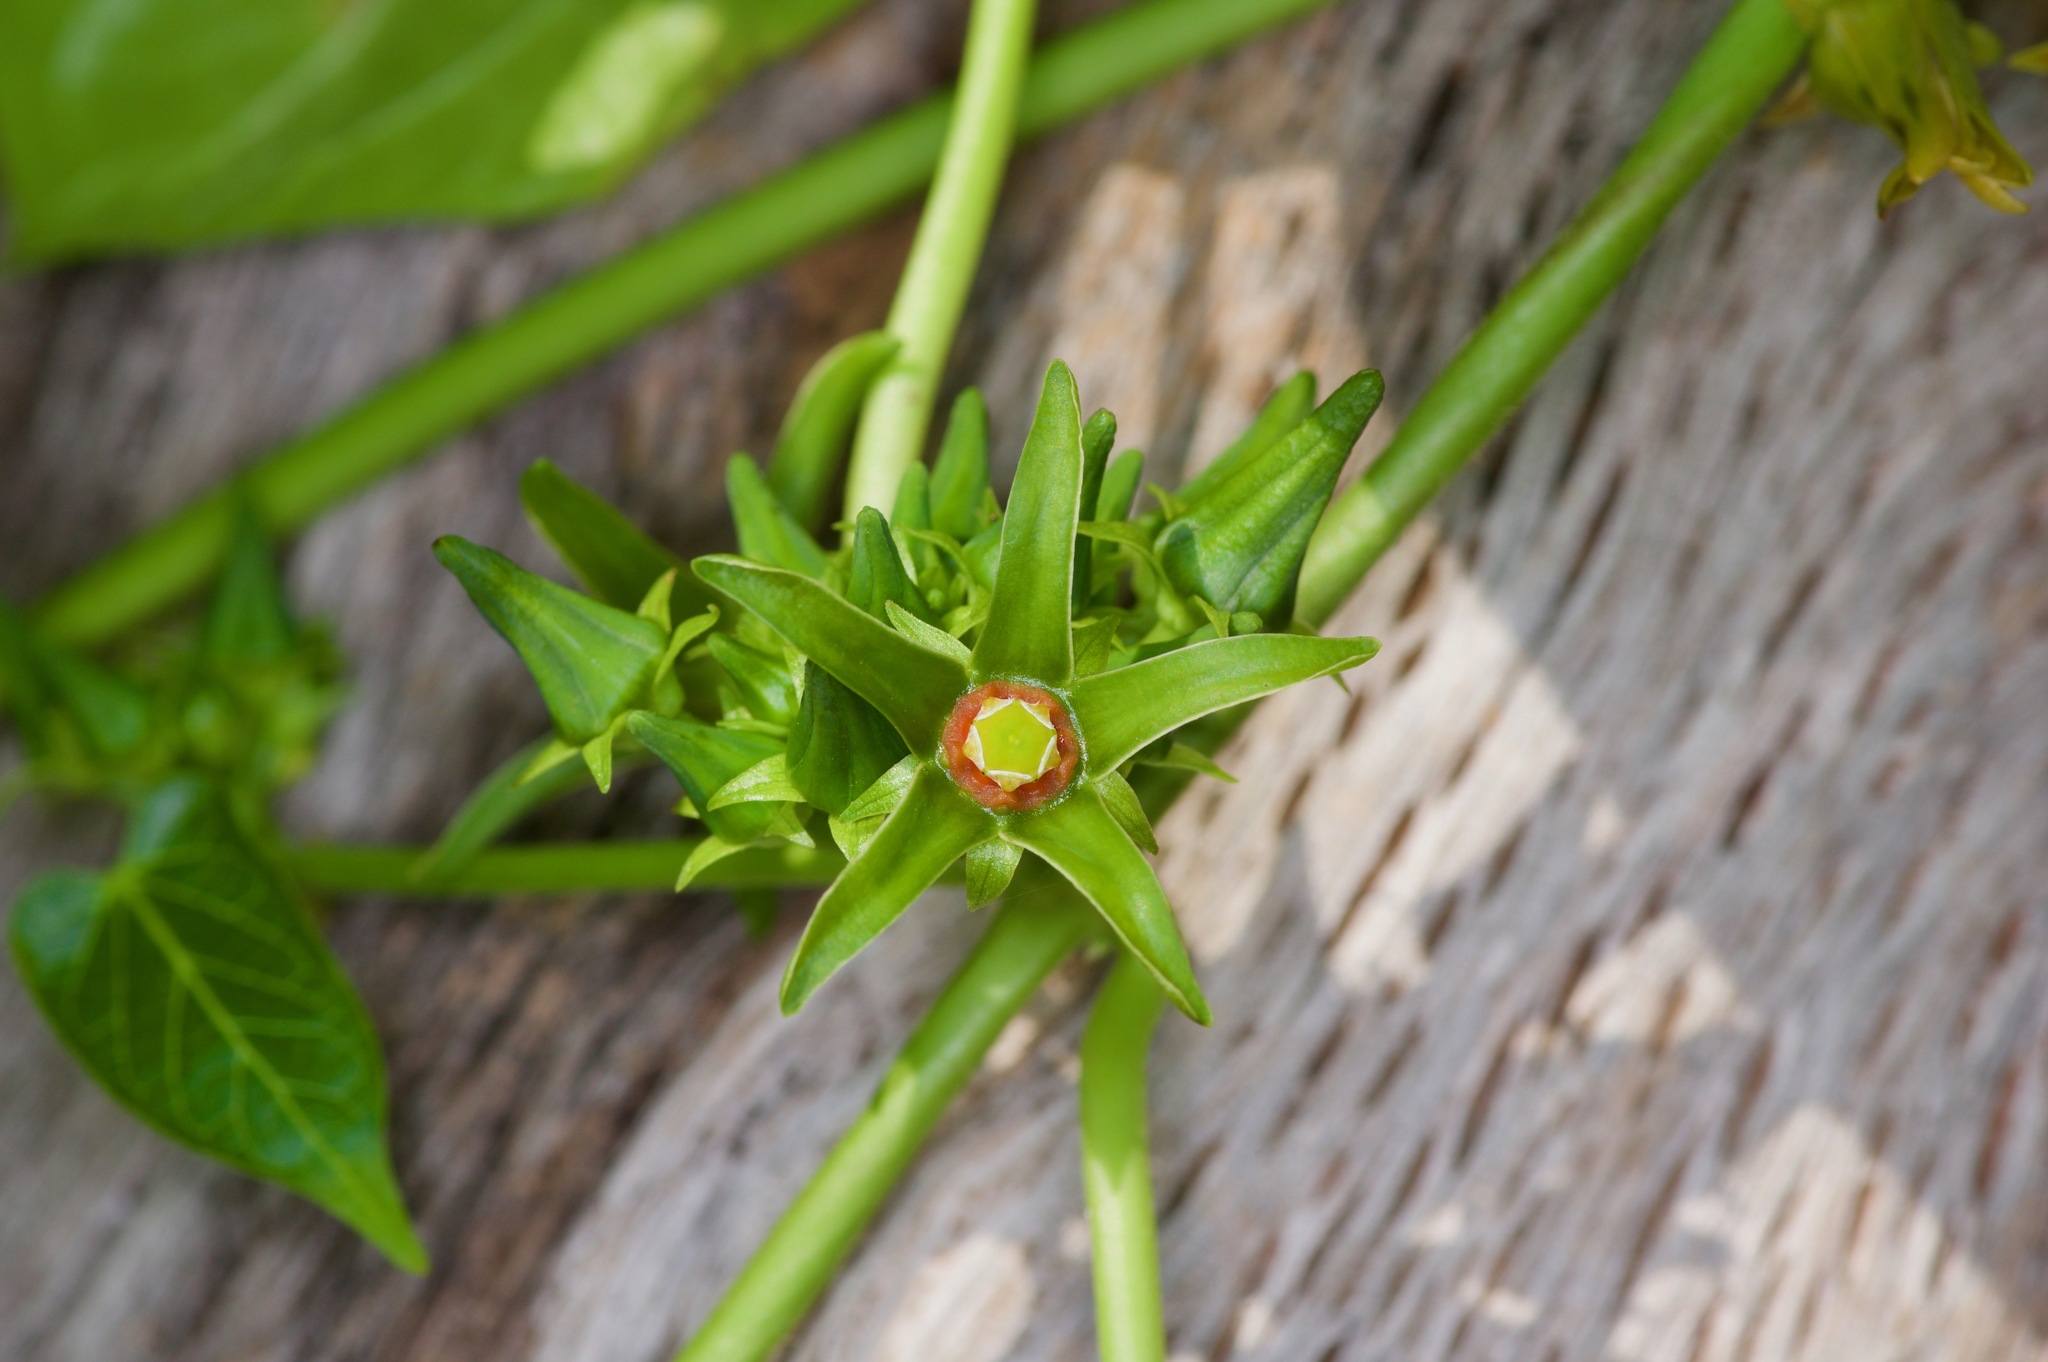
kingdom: Plantae
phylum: Tracheophyta
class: Magnoliopsida
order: Gentianales
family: Apocynaceae
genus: Gonolobus
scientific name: Gonolobus suberosus
